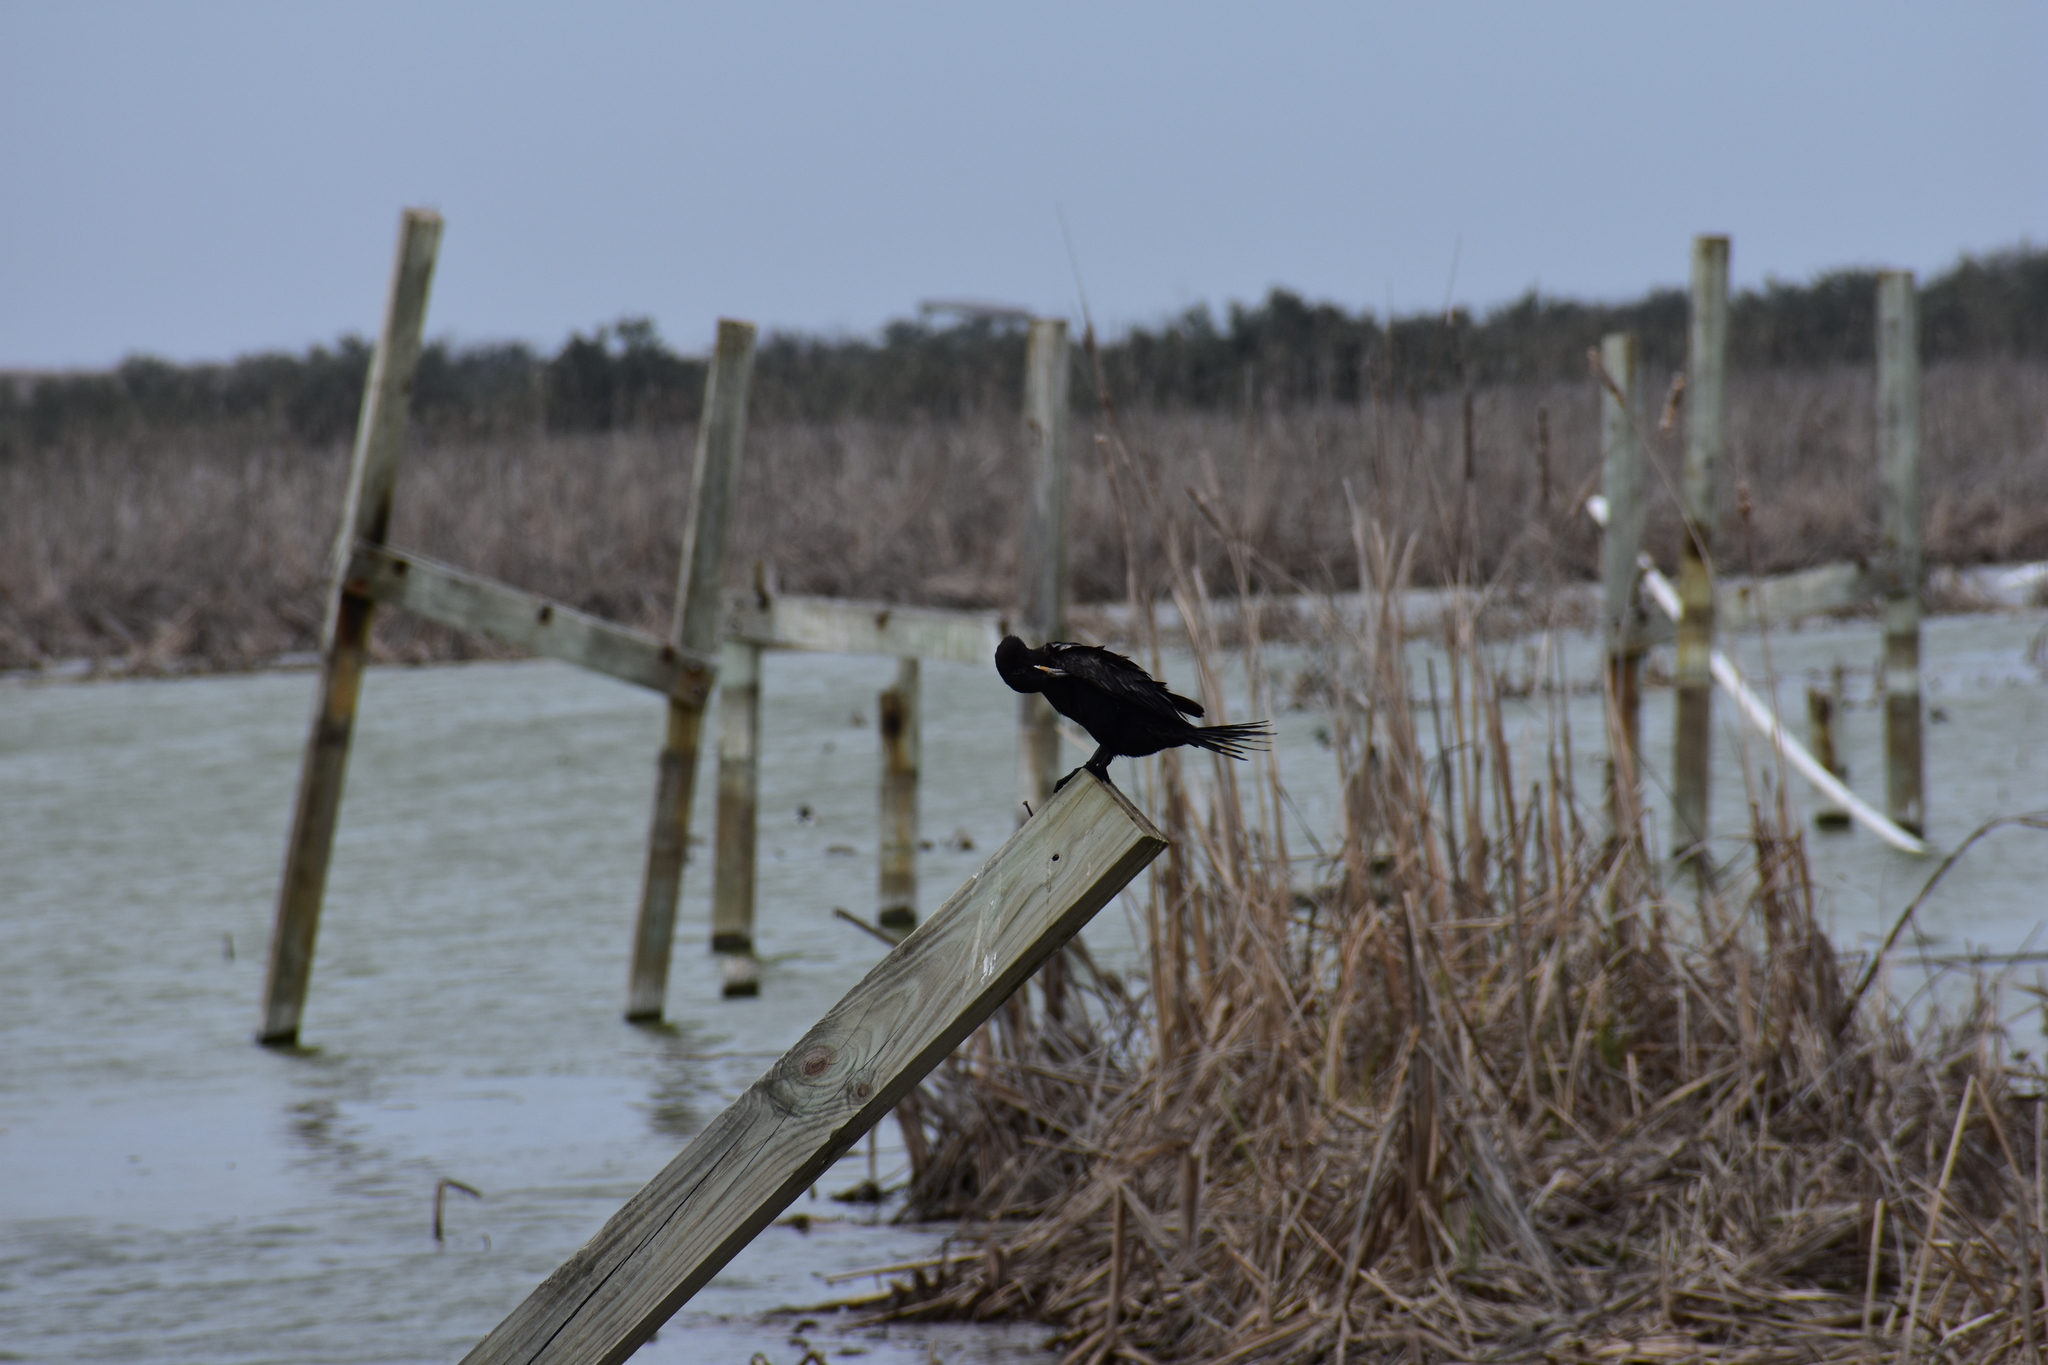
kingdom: Animalia
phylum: Chordata
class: Aves
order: Suliformes
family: Phalacrocoracidae
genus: Phalacrocorax
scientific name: Phalacrocorax brasilianus
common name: Neotropic cormorant
